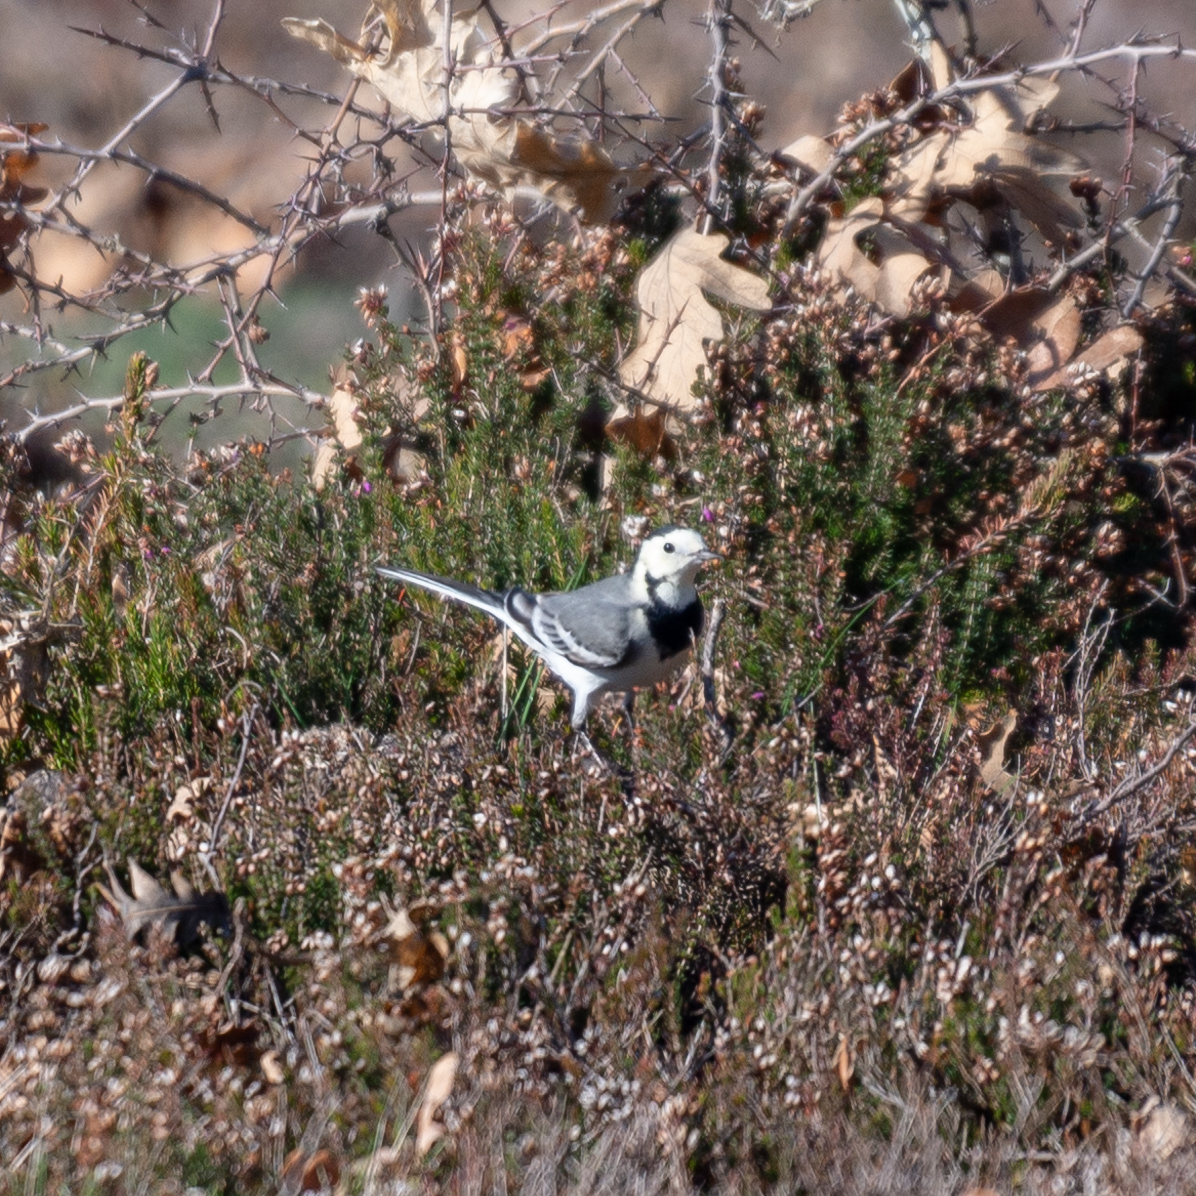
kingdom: Animalia
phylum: Chordata
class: Aves
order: Passeriformes
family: Motacillidae
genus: Motacilla
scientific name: Motacilla alba
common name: White wagtail
